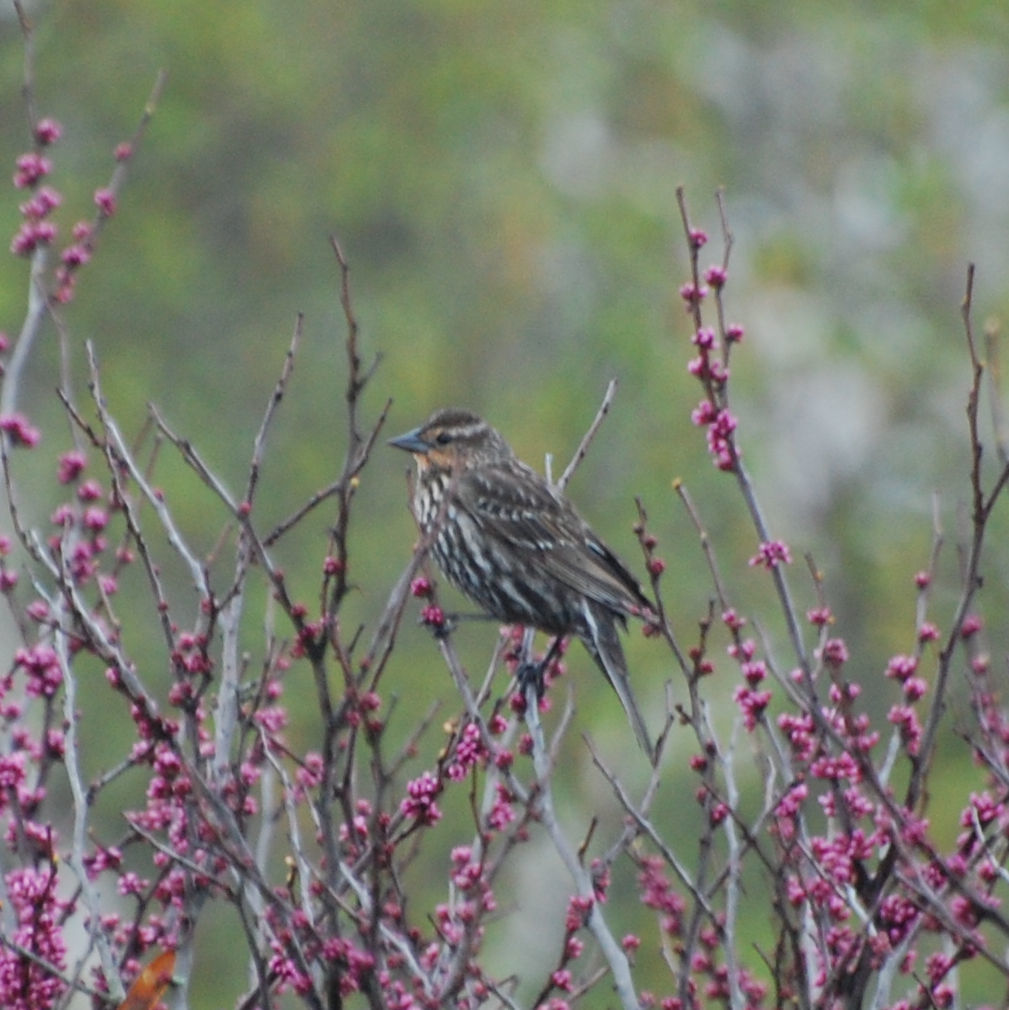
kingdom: Animalia
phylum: Chordata
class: Aves
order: Passeriformes
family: Icteridae
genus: Agelaius
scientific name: Agelaius phoeniceus
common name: Red-winged blackbird
